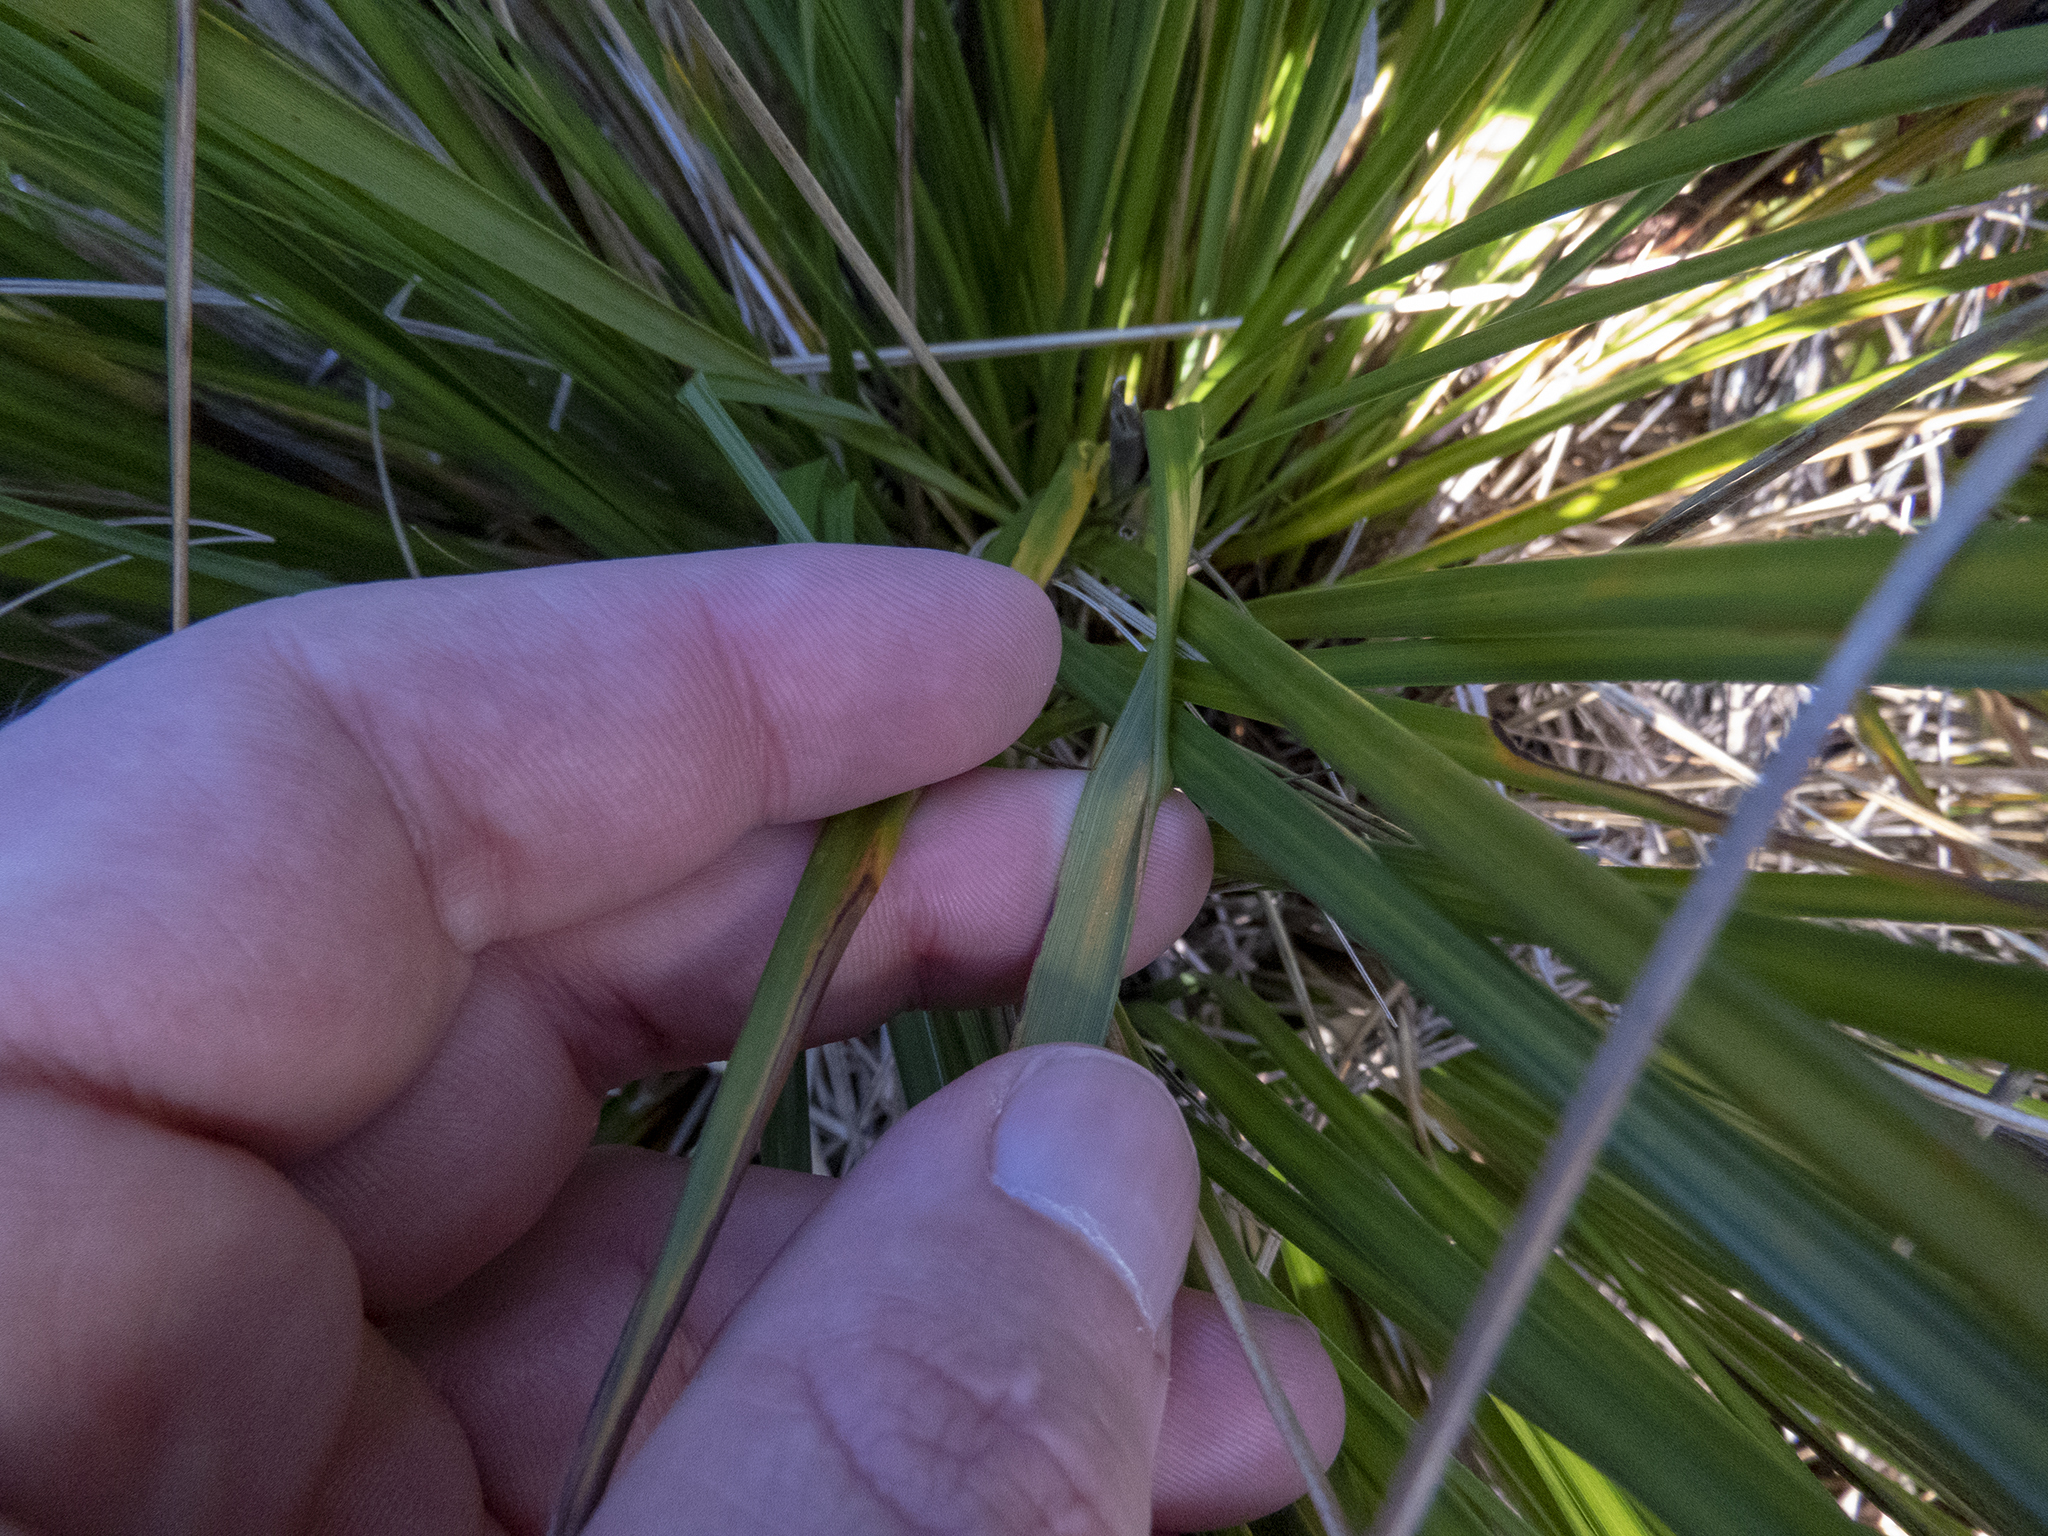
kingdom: Plantae
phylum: Tracheophyta
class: Liliopsida
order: Poales
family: Cyperaceae
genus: Gahnia
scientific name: Gahnia procera
